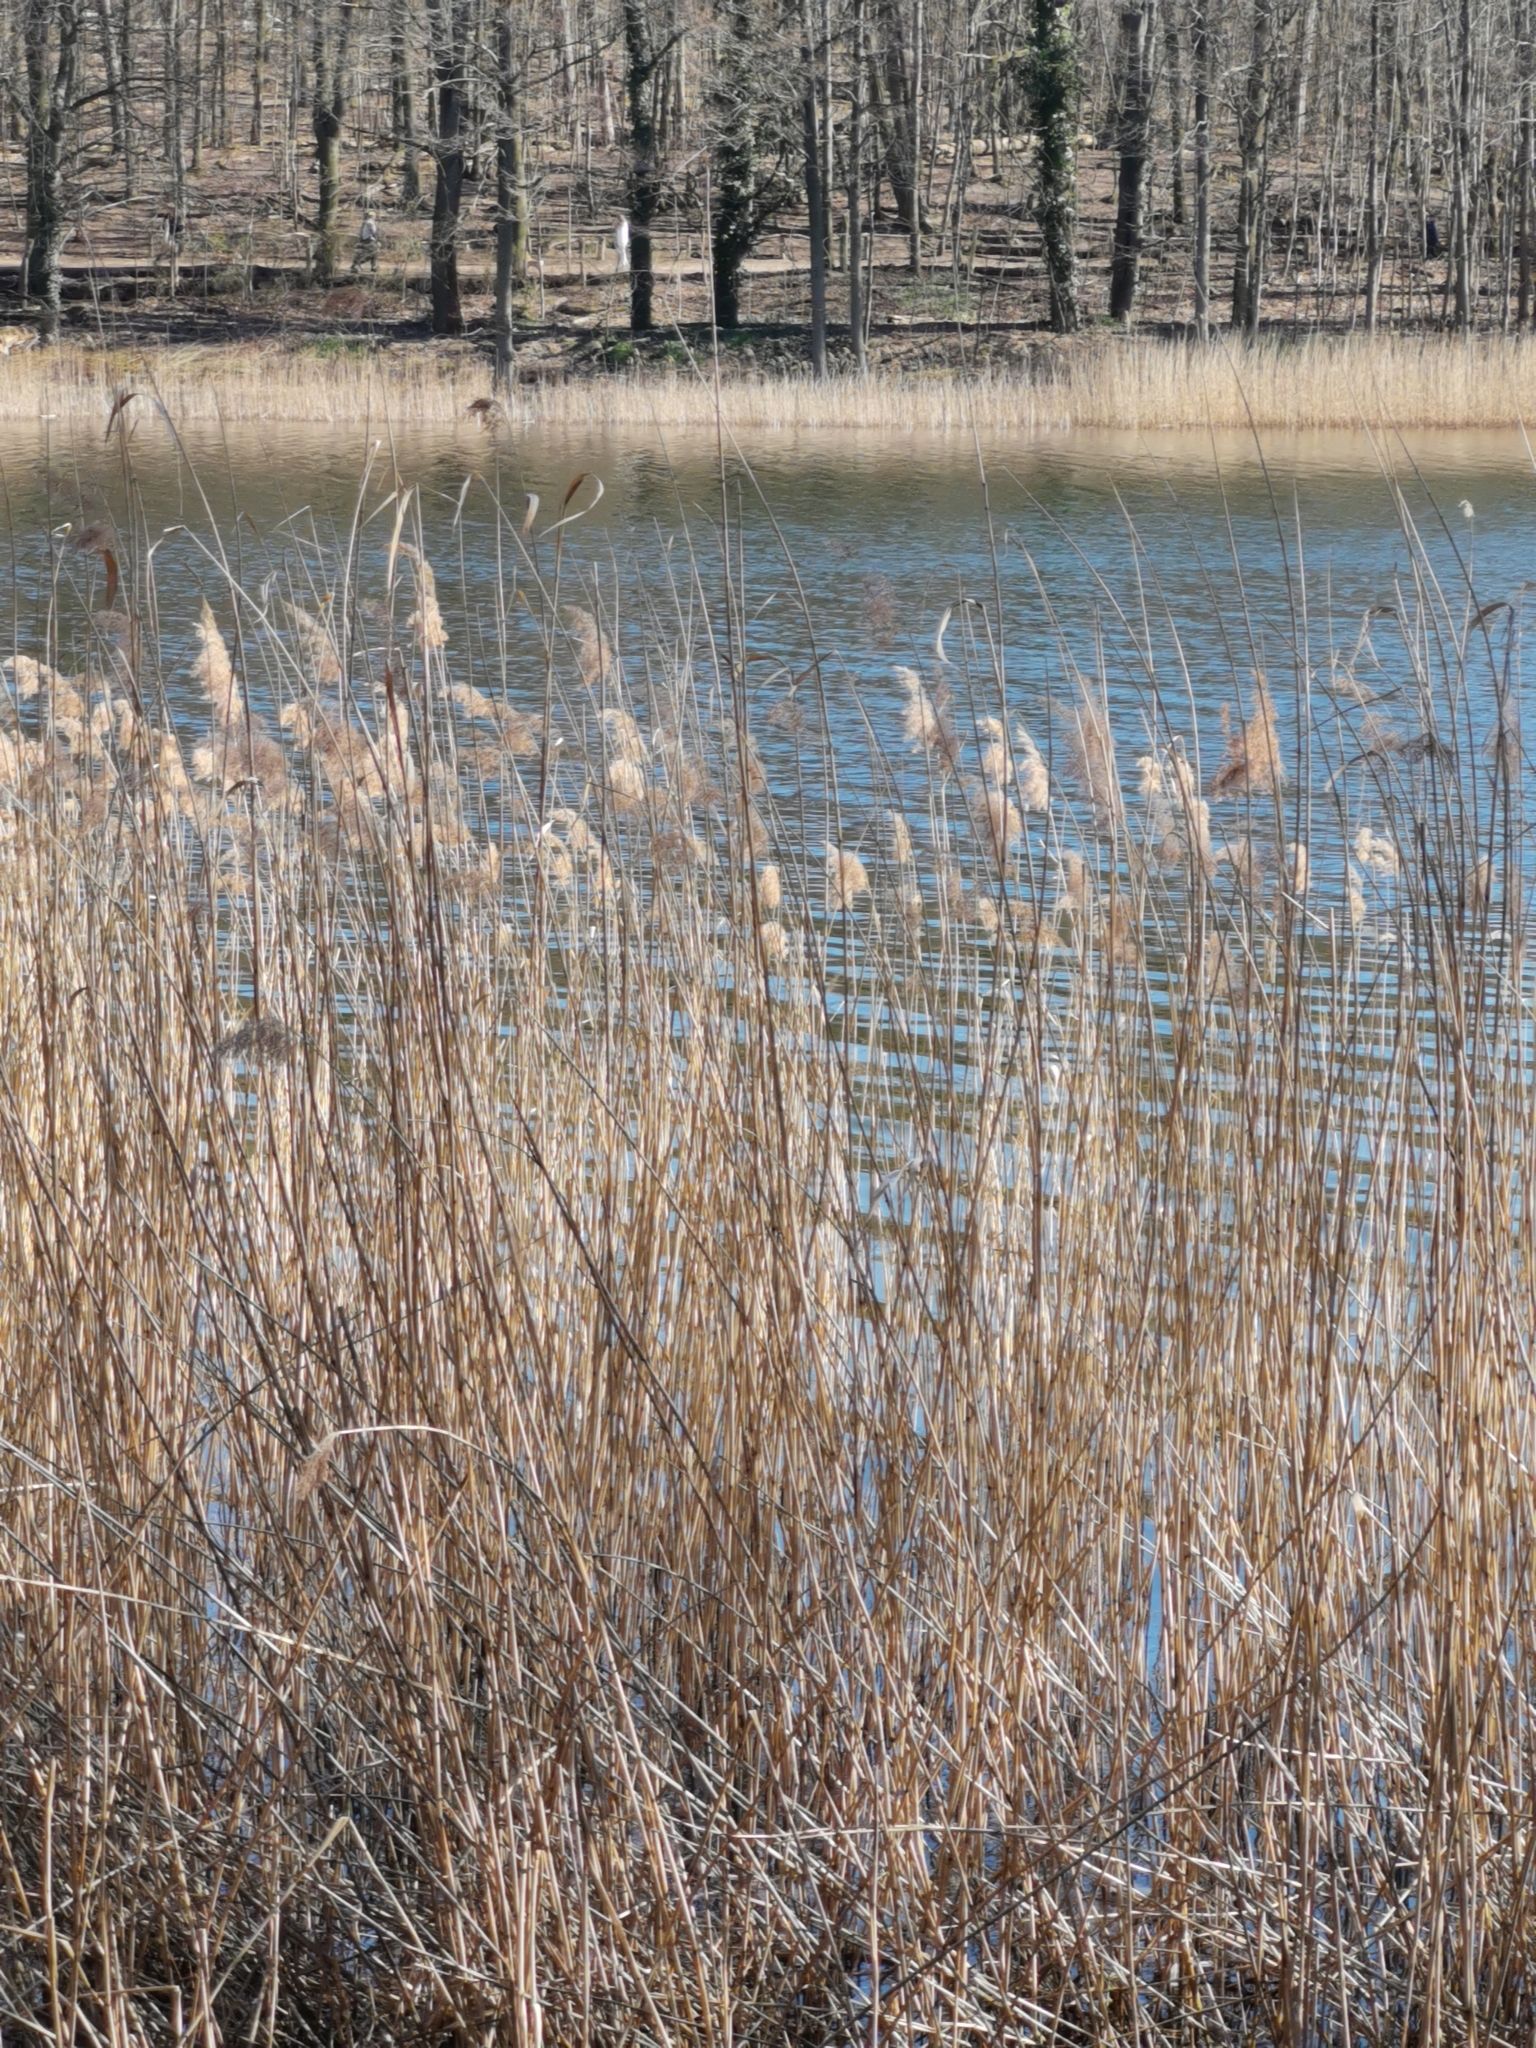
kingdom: Plantae
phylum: Tracheophyta
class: Liliopsida
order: Poales
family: Poaceae
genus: Phragmites
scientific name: Phragmites australis
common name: Common reed
